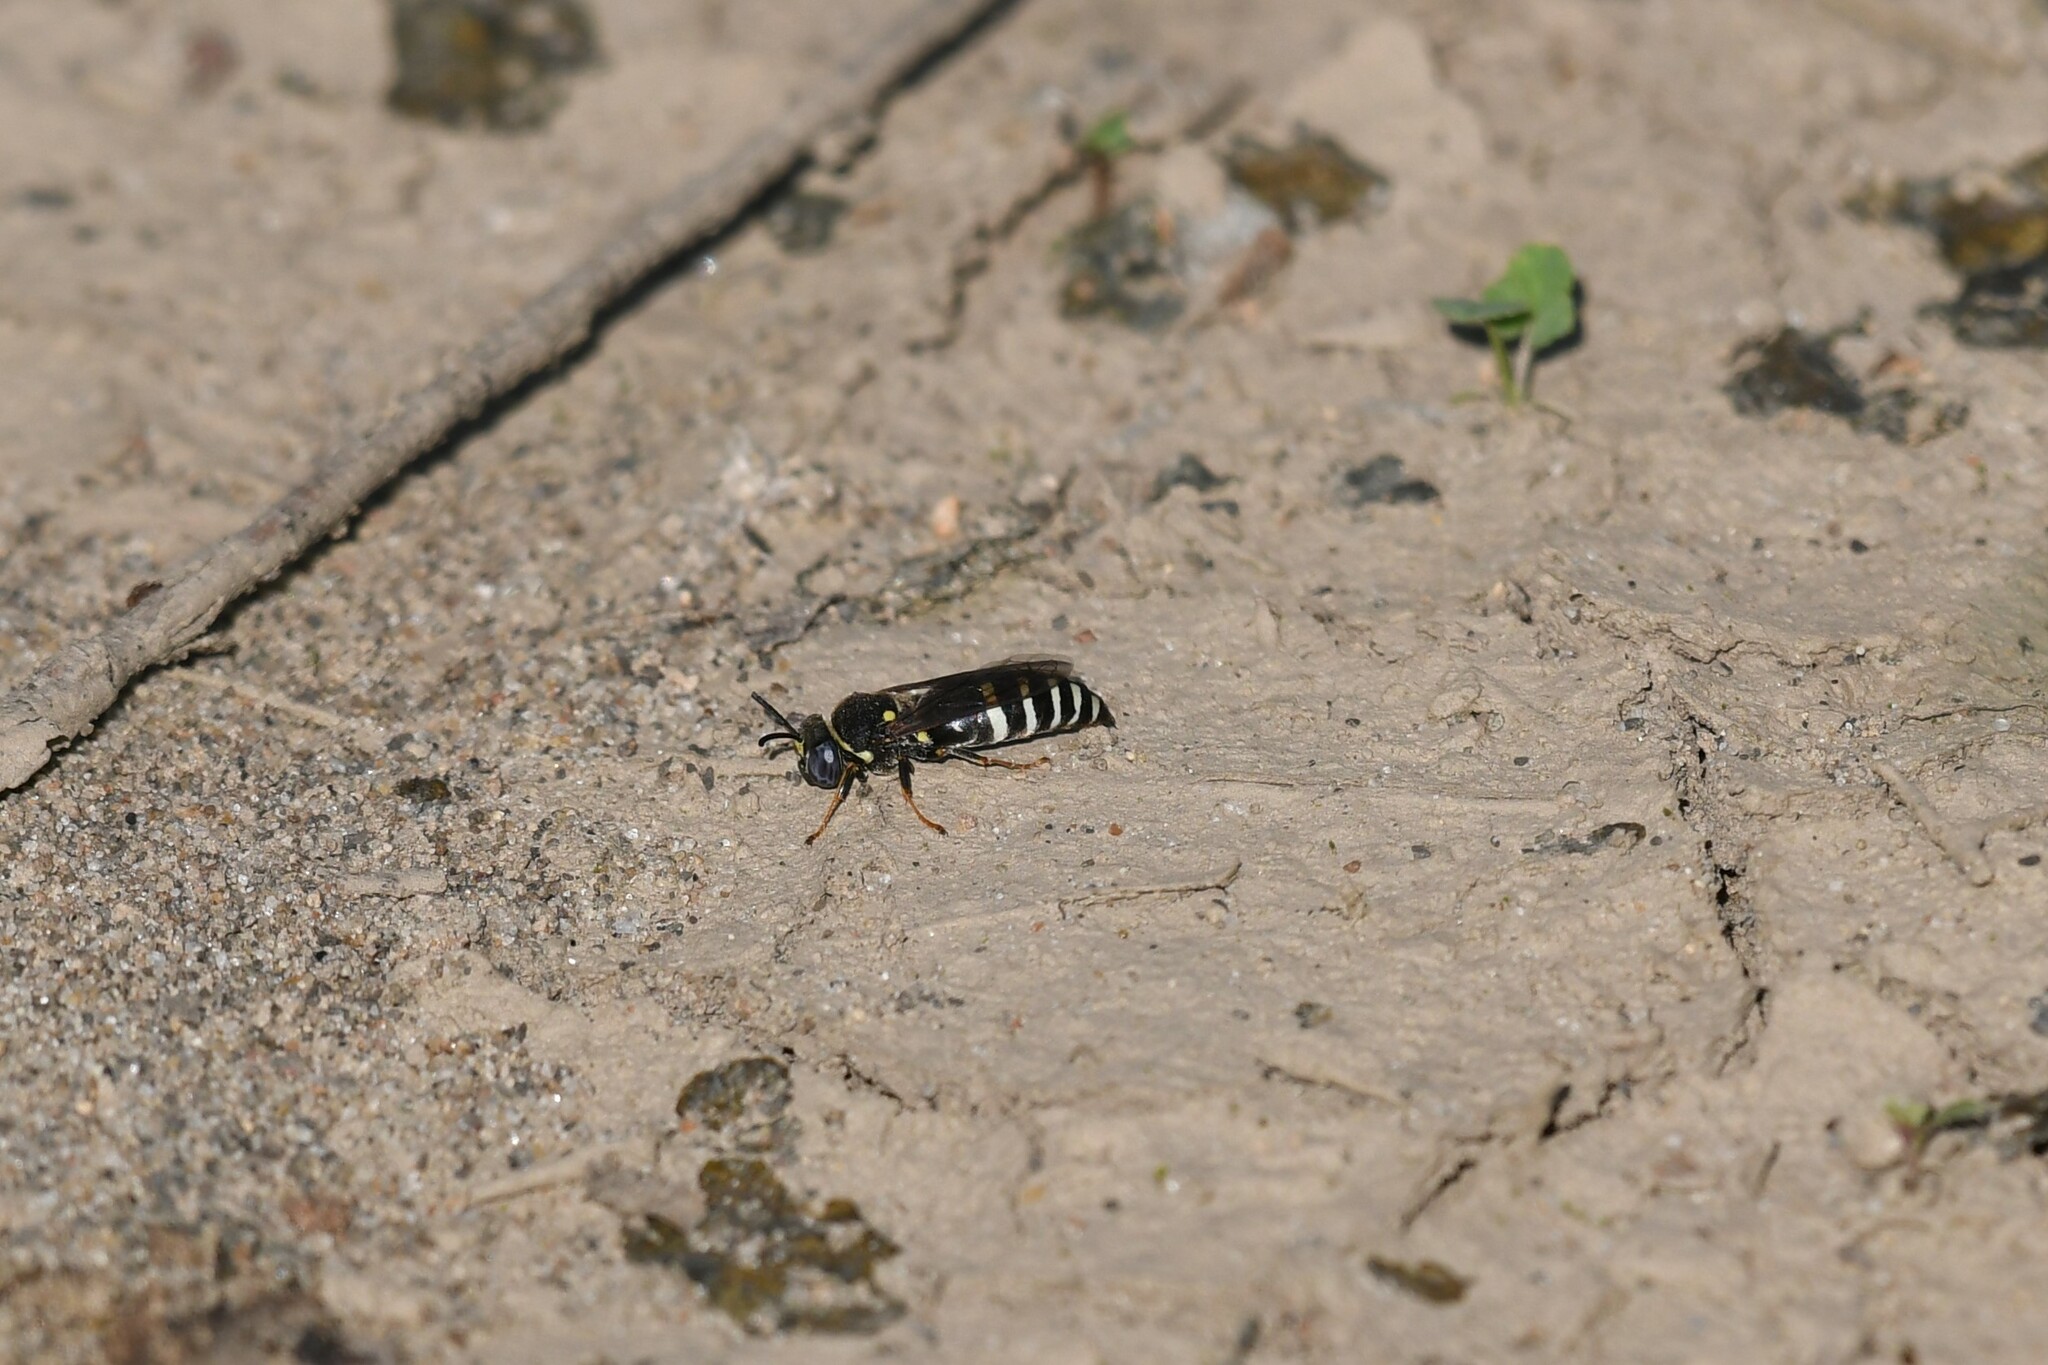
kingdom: Animalia
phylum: Arthropoda
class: Insecta
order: Hymenoptera
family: Crabronidae
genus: Bicyrtes
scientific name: Bicyrtes ventralis
